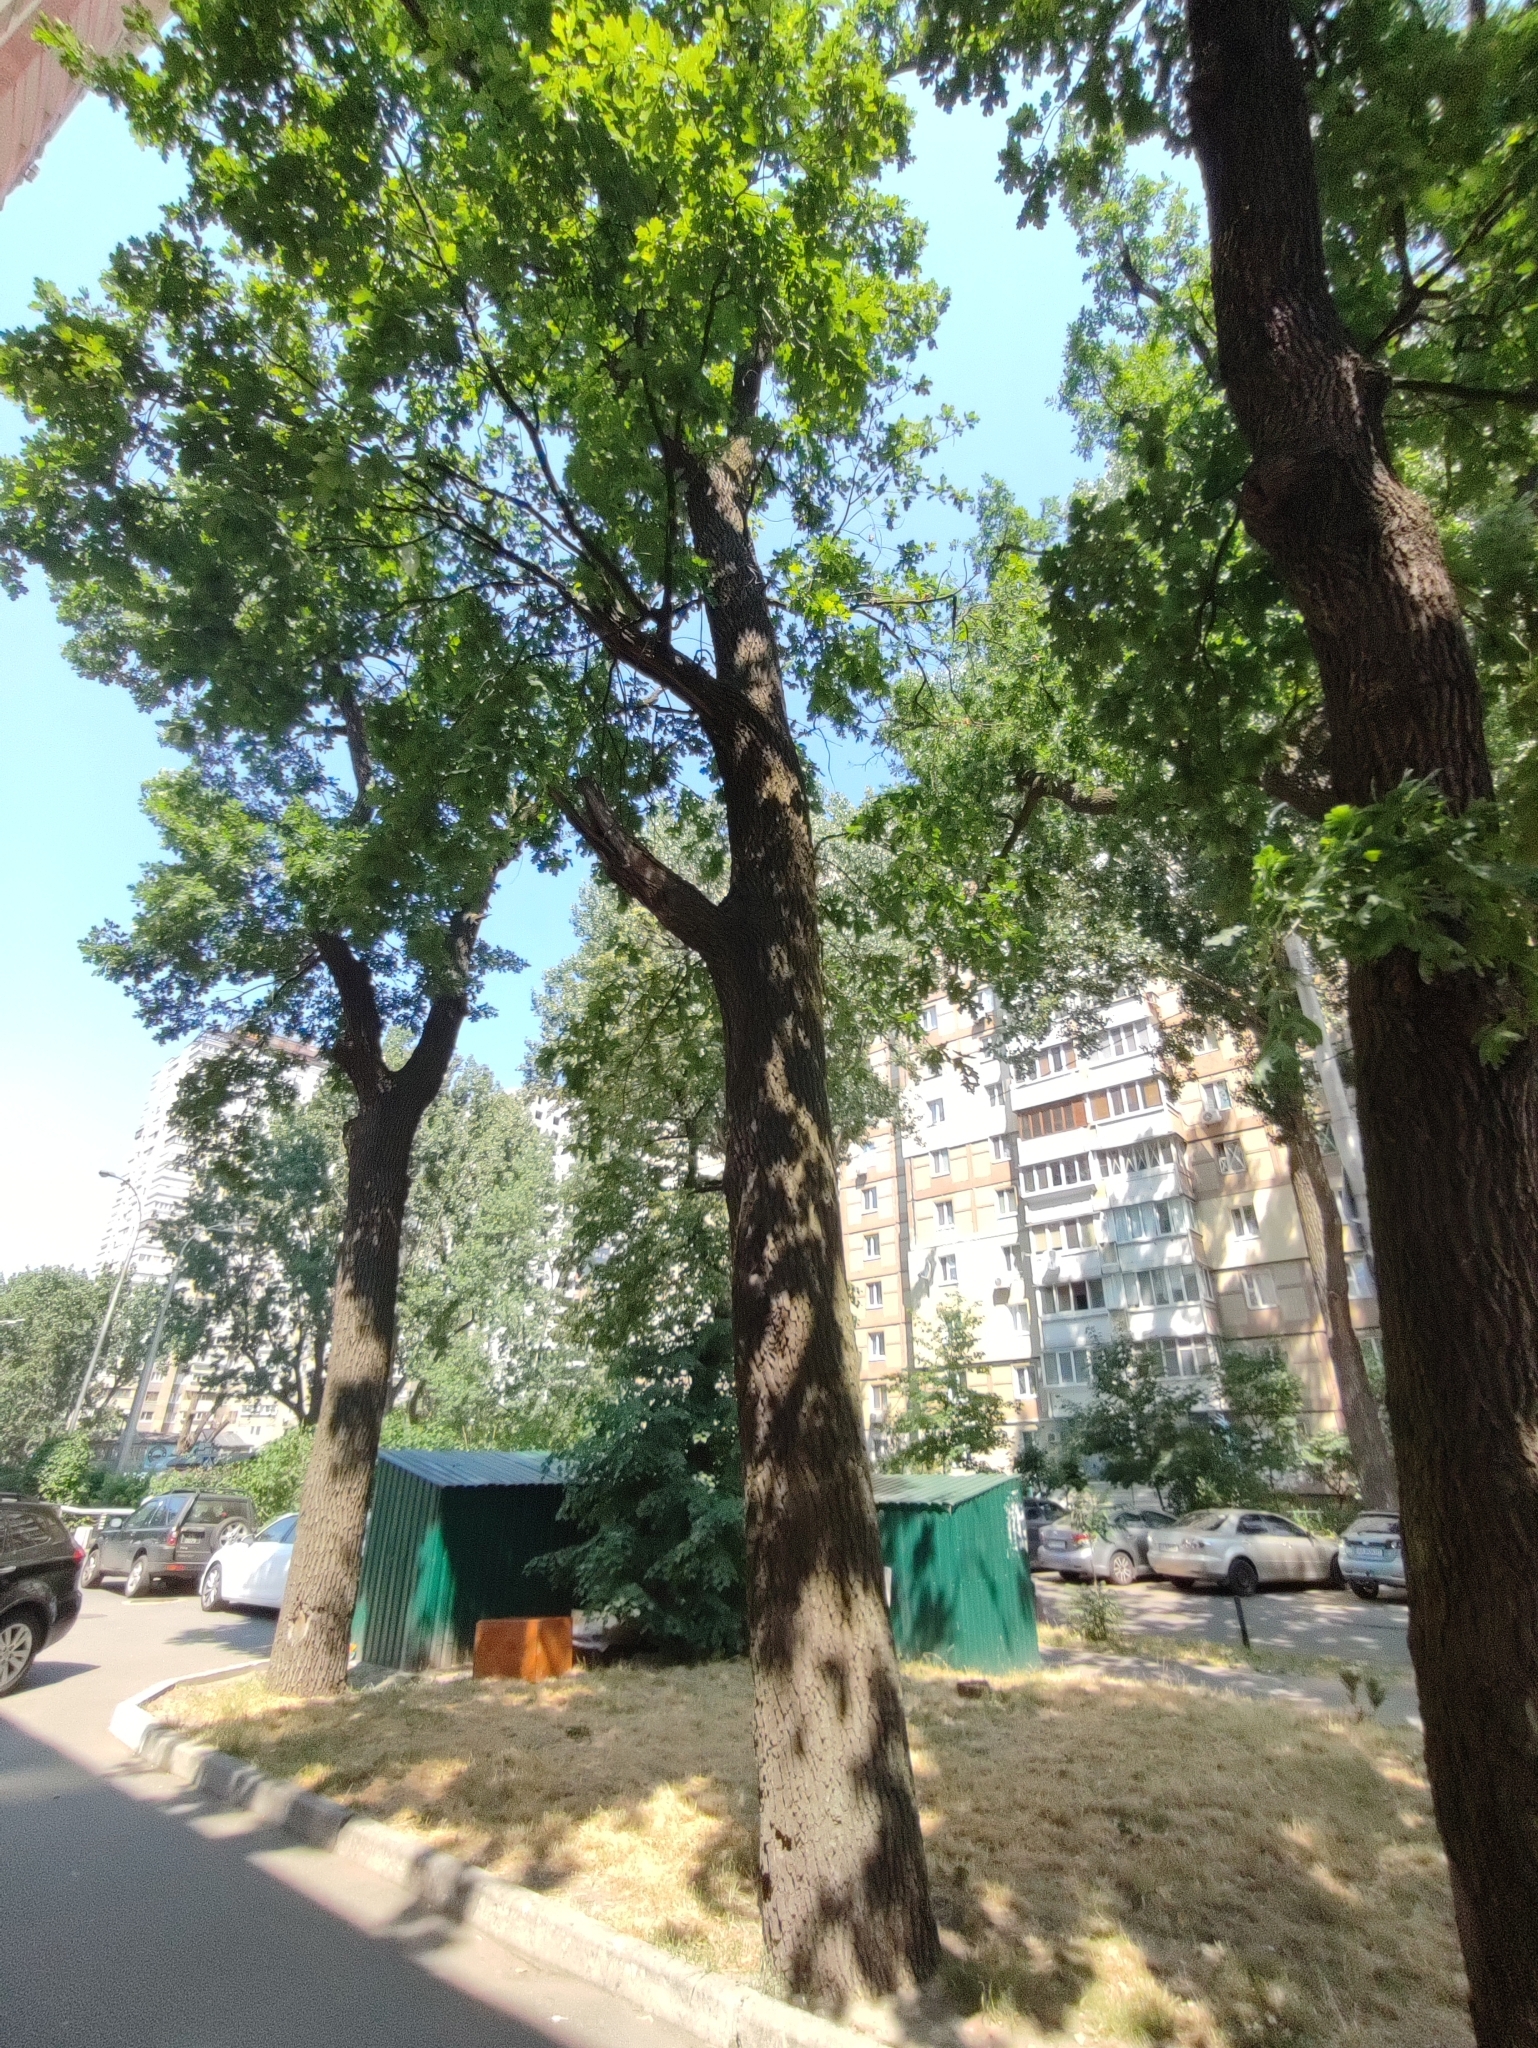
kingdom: Plantae
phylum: Tracheophyta
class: Magnoliopsida
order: Fagales
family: Fagaceae
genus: Quercus
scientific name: Quercus robur
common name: Pedunculate oak
